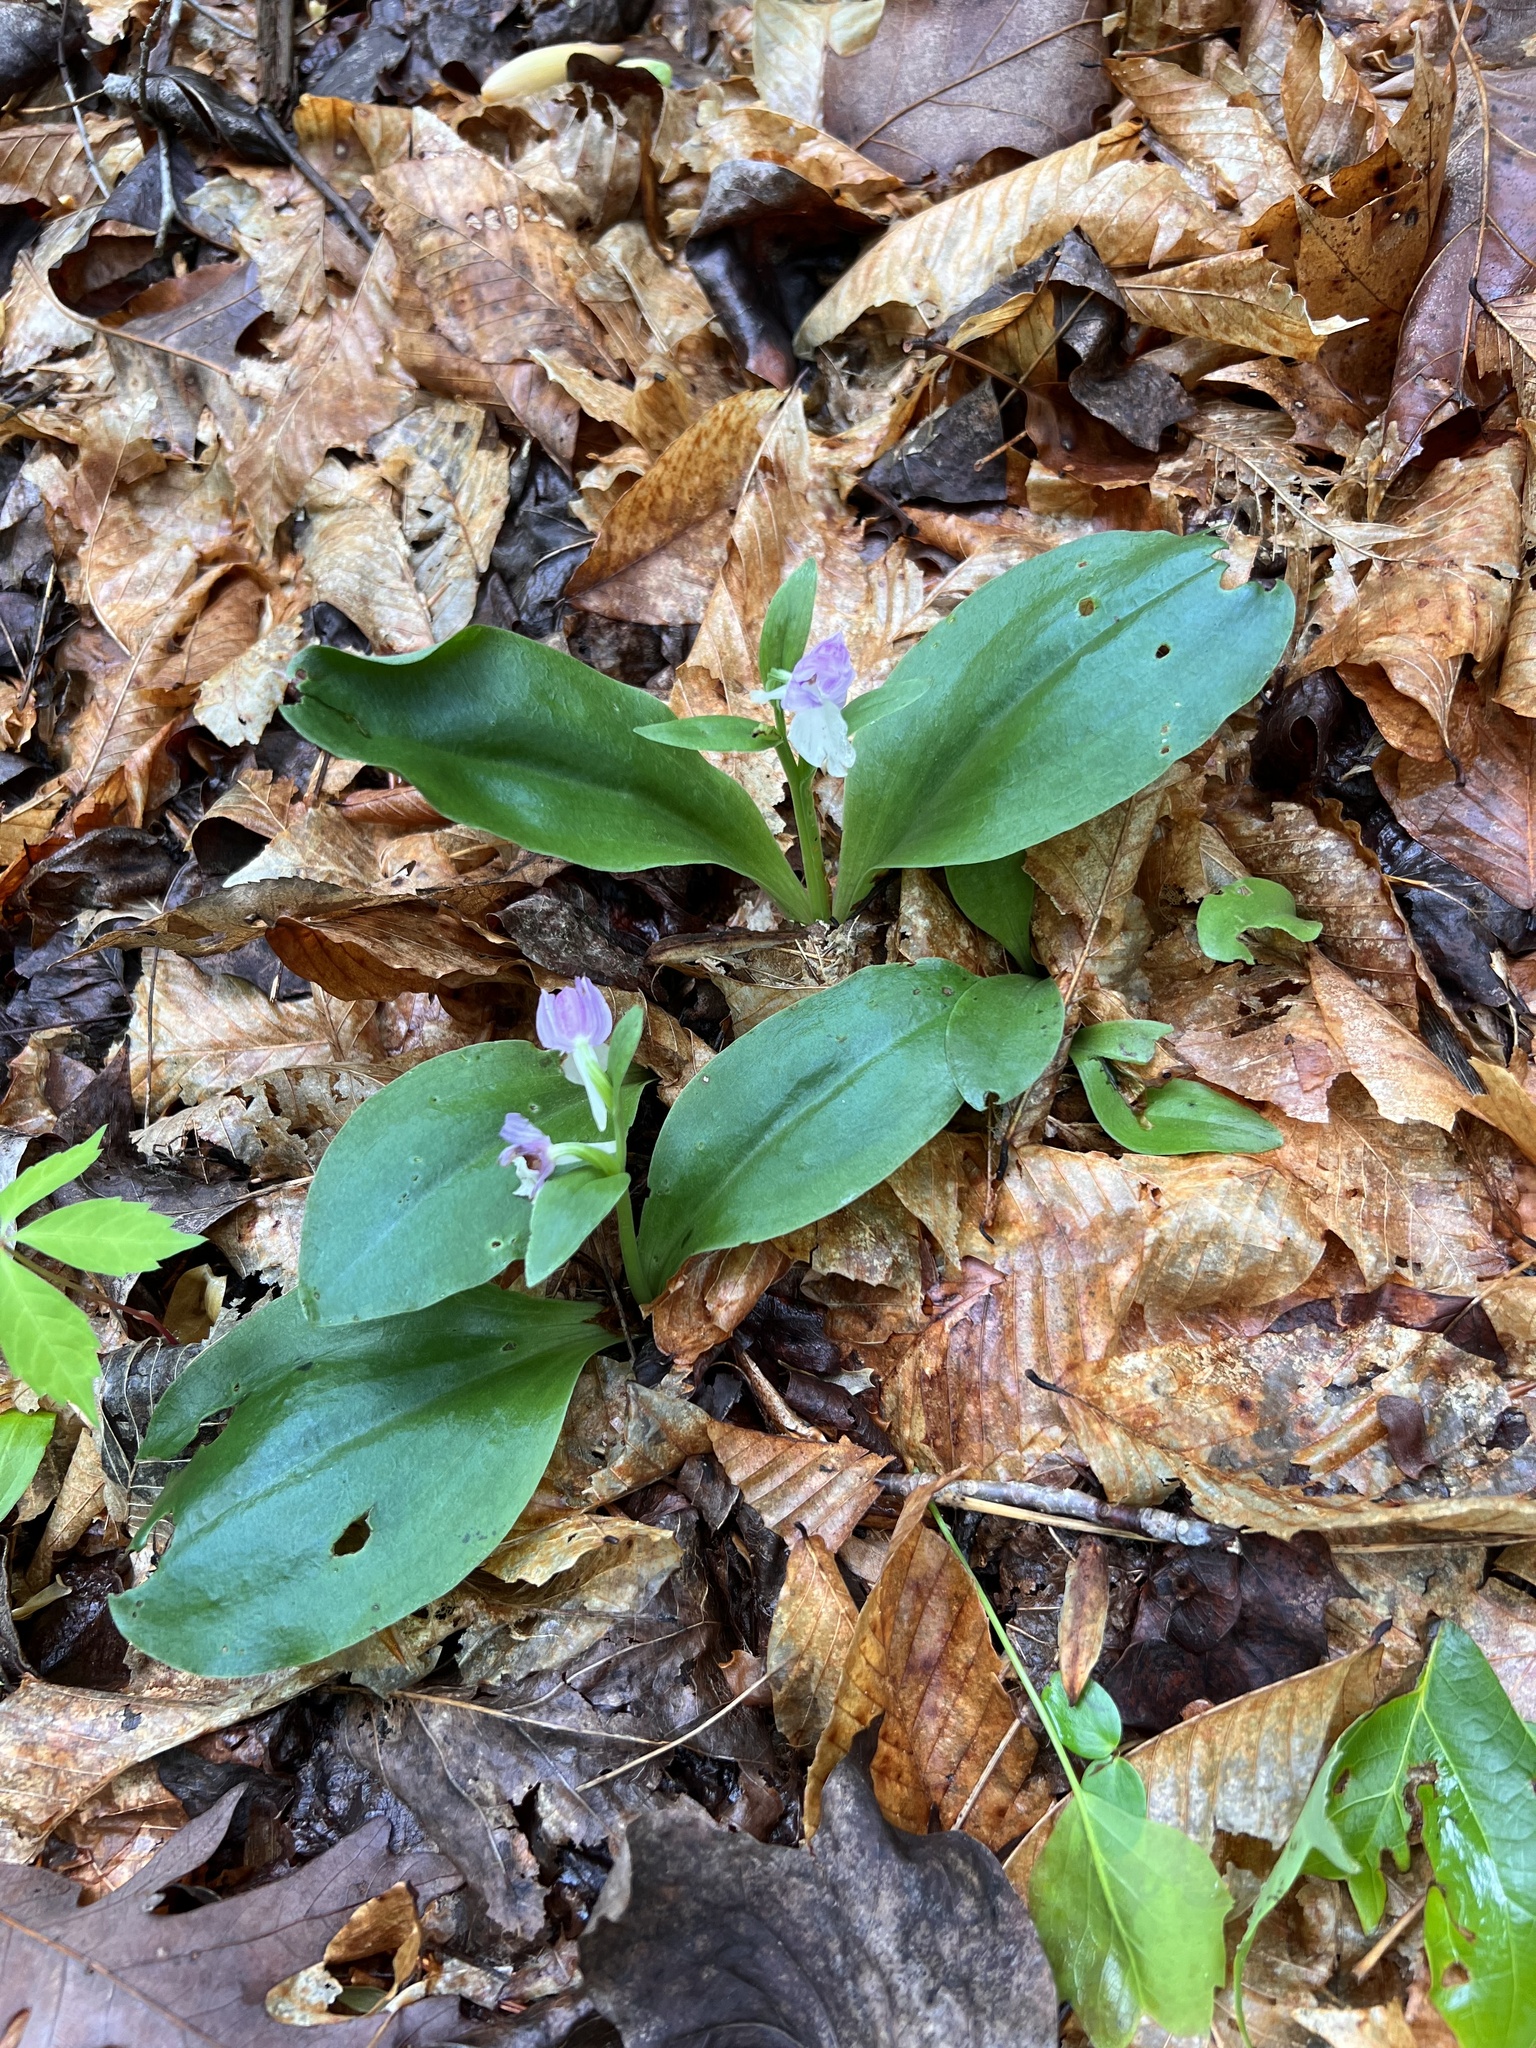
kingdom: Plantae
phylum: Tracheophyta
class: Liliopsida
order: Asparagales
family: Orchidaceae
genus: Galearis
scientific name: Galearis spectabilis
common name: Purple-hooded orchis
